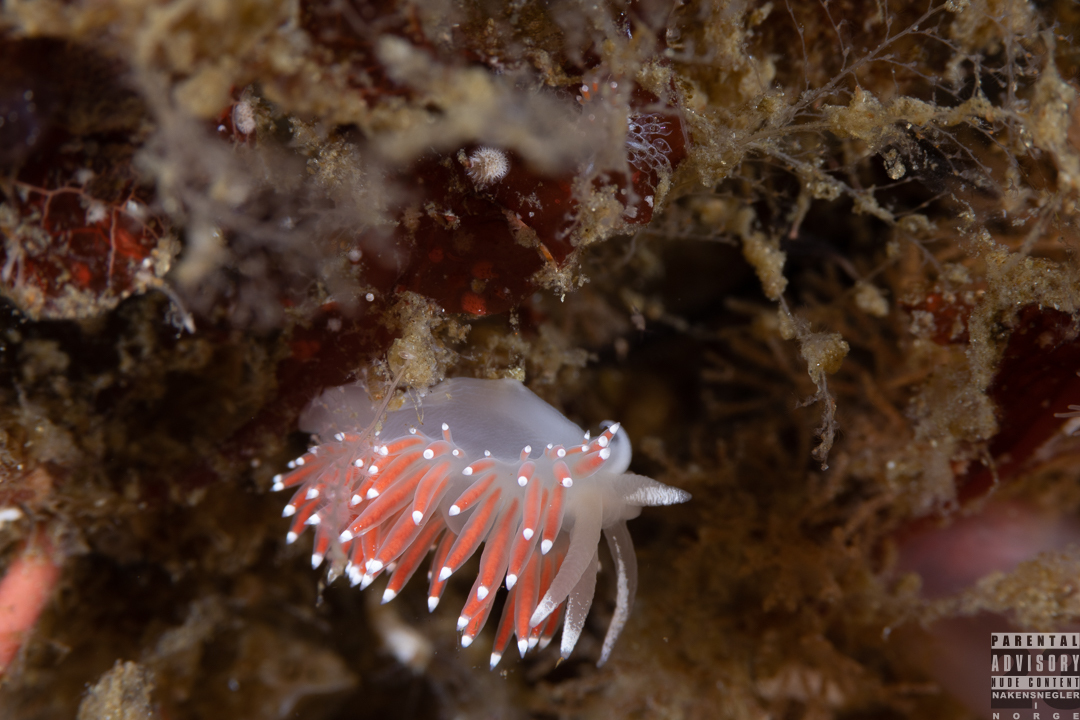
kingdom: Animalia
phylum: Mollusca
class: Gastropoda
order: Nudibranchia
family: Coryphellidae
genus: Coryphella
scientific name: Coryphella browni
